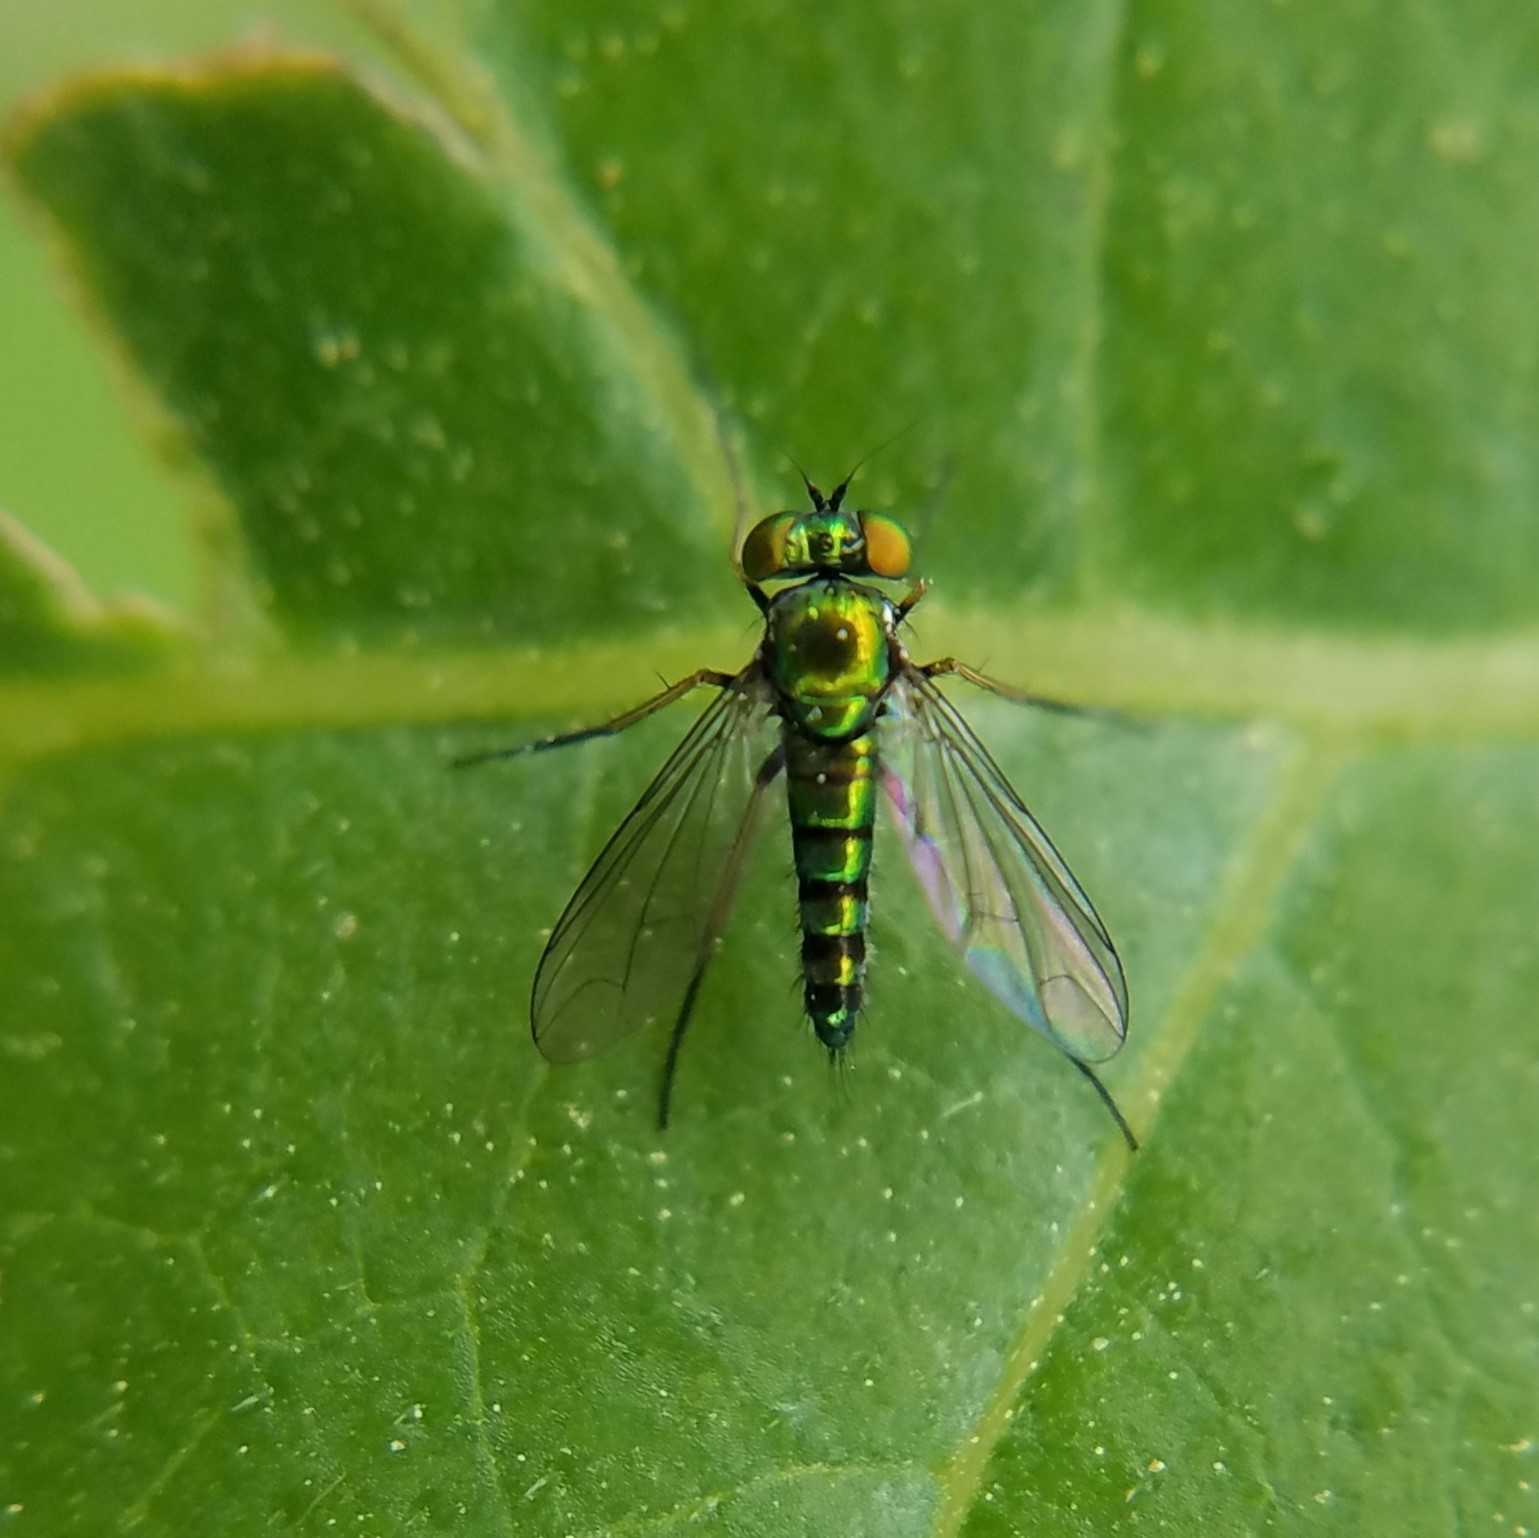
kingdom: Animalia
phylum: Arthropoda
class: Insecta
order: Diptera
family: Dolichopodidae
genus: Condylostylus
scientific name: Condylostylus caudatus
